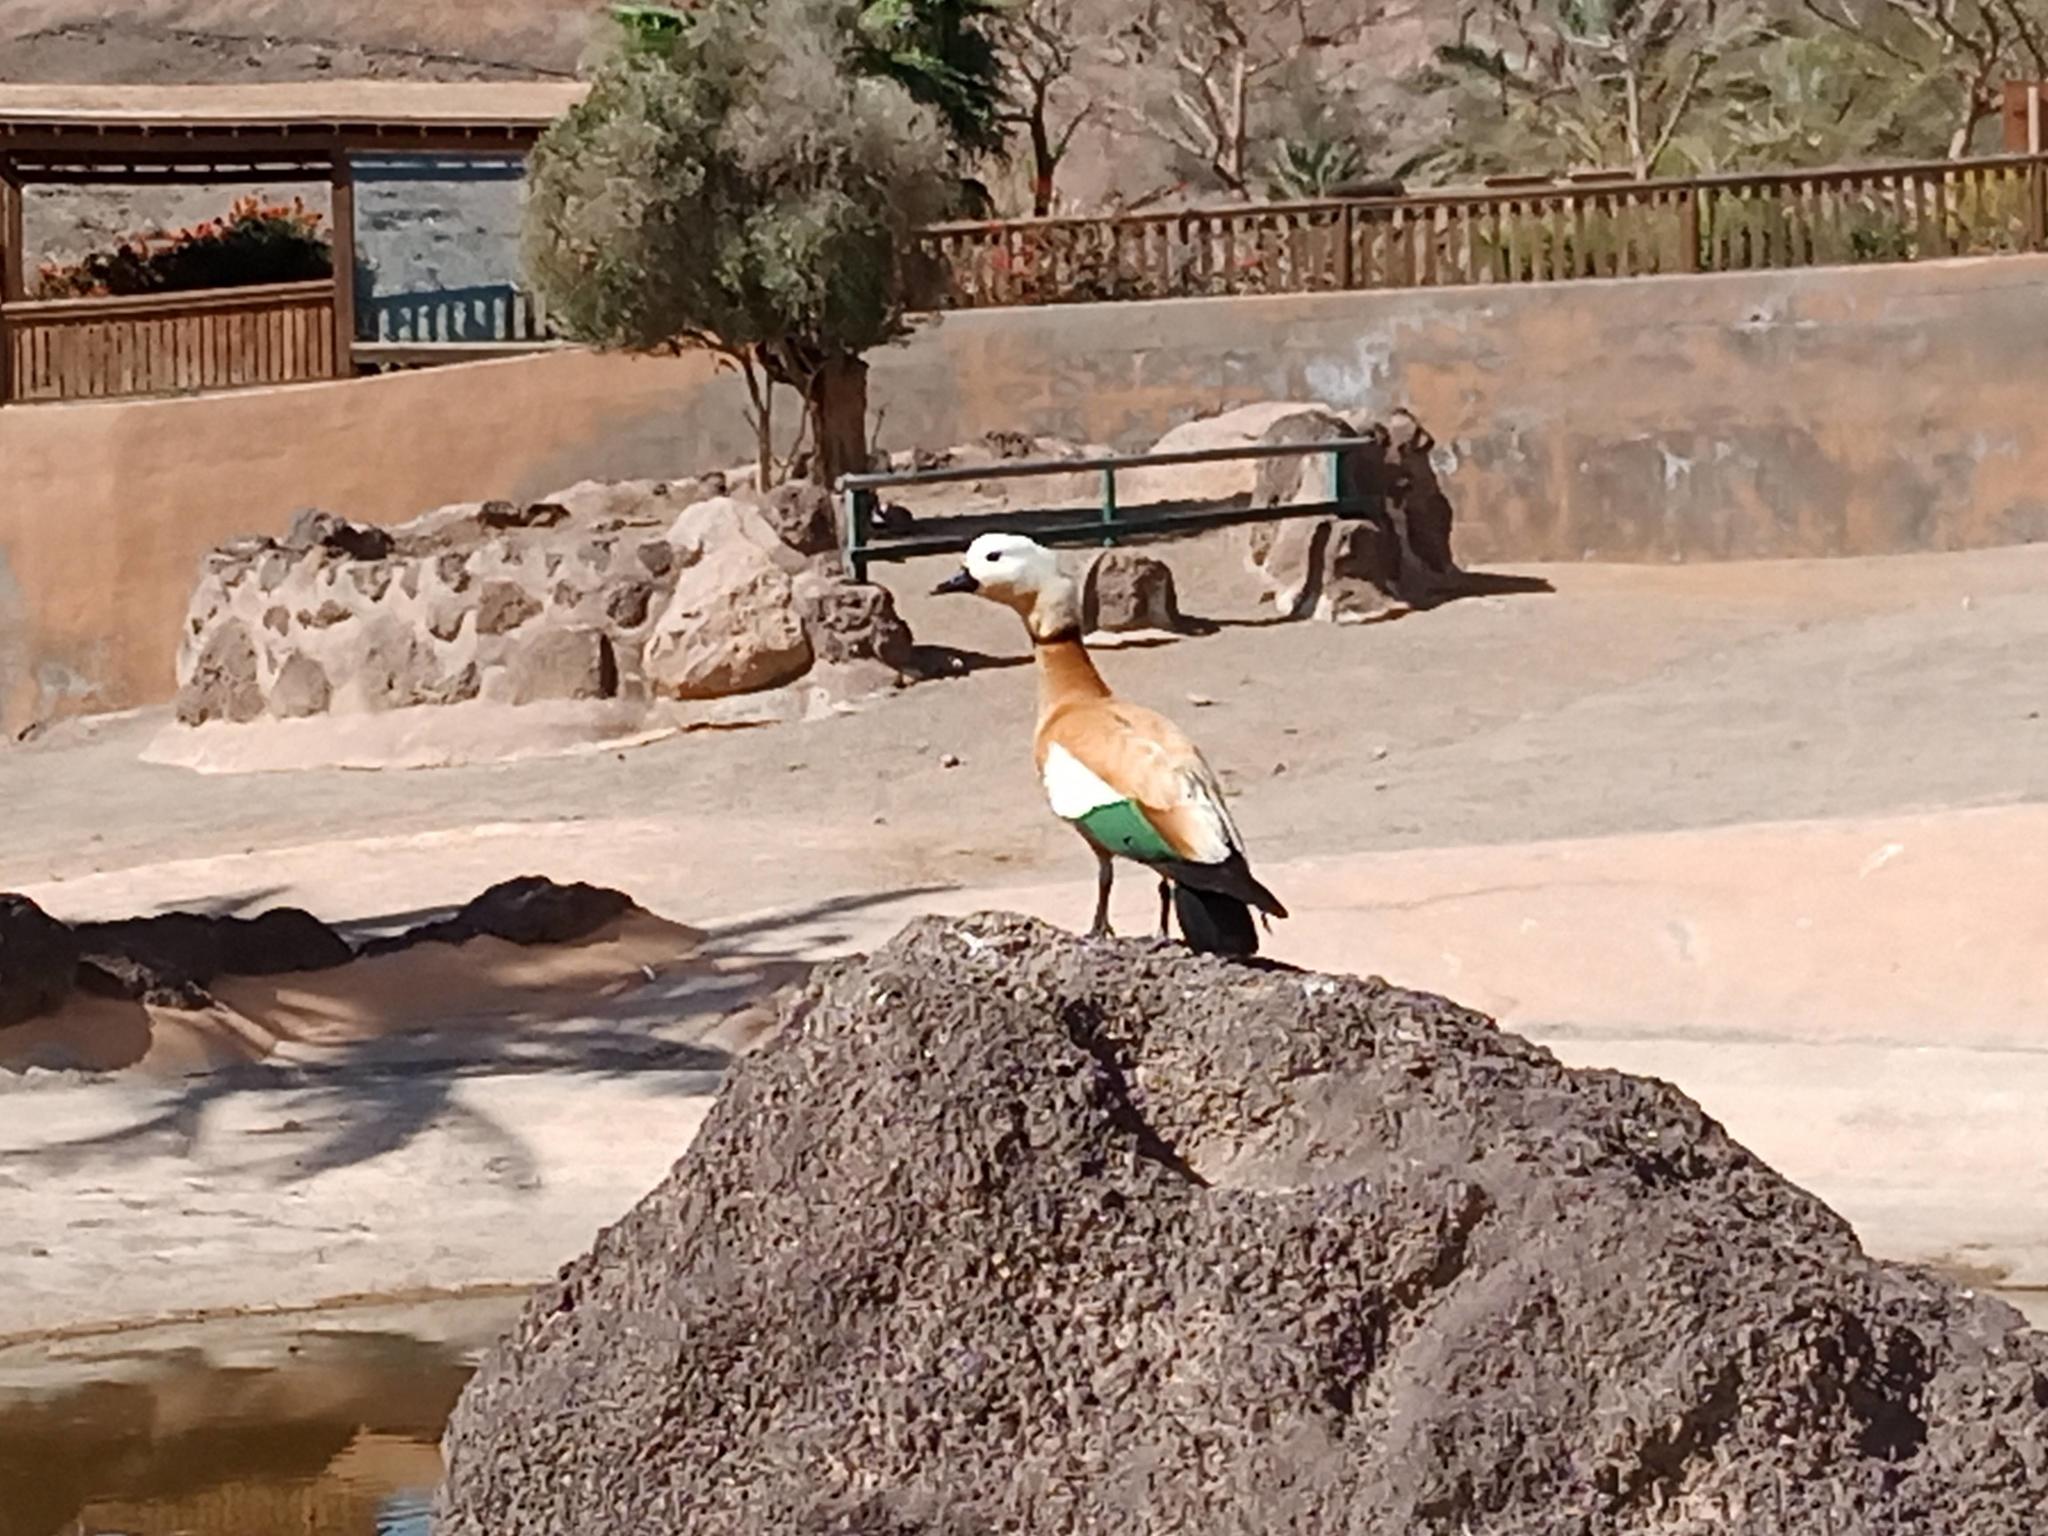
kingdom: Animalia
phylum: Chordata
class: Aves
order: Anseriformes
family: Anatidae
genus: Tadorna
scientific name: Tadorna ferruginea
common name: Ruddy shelduck
